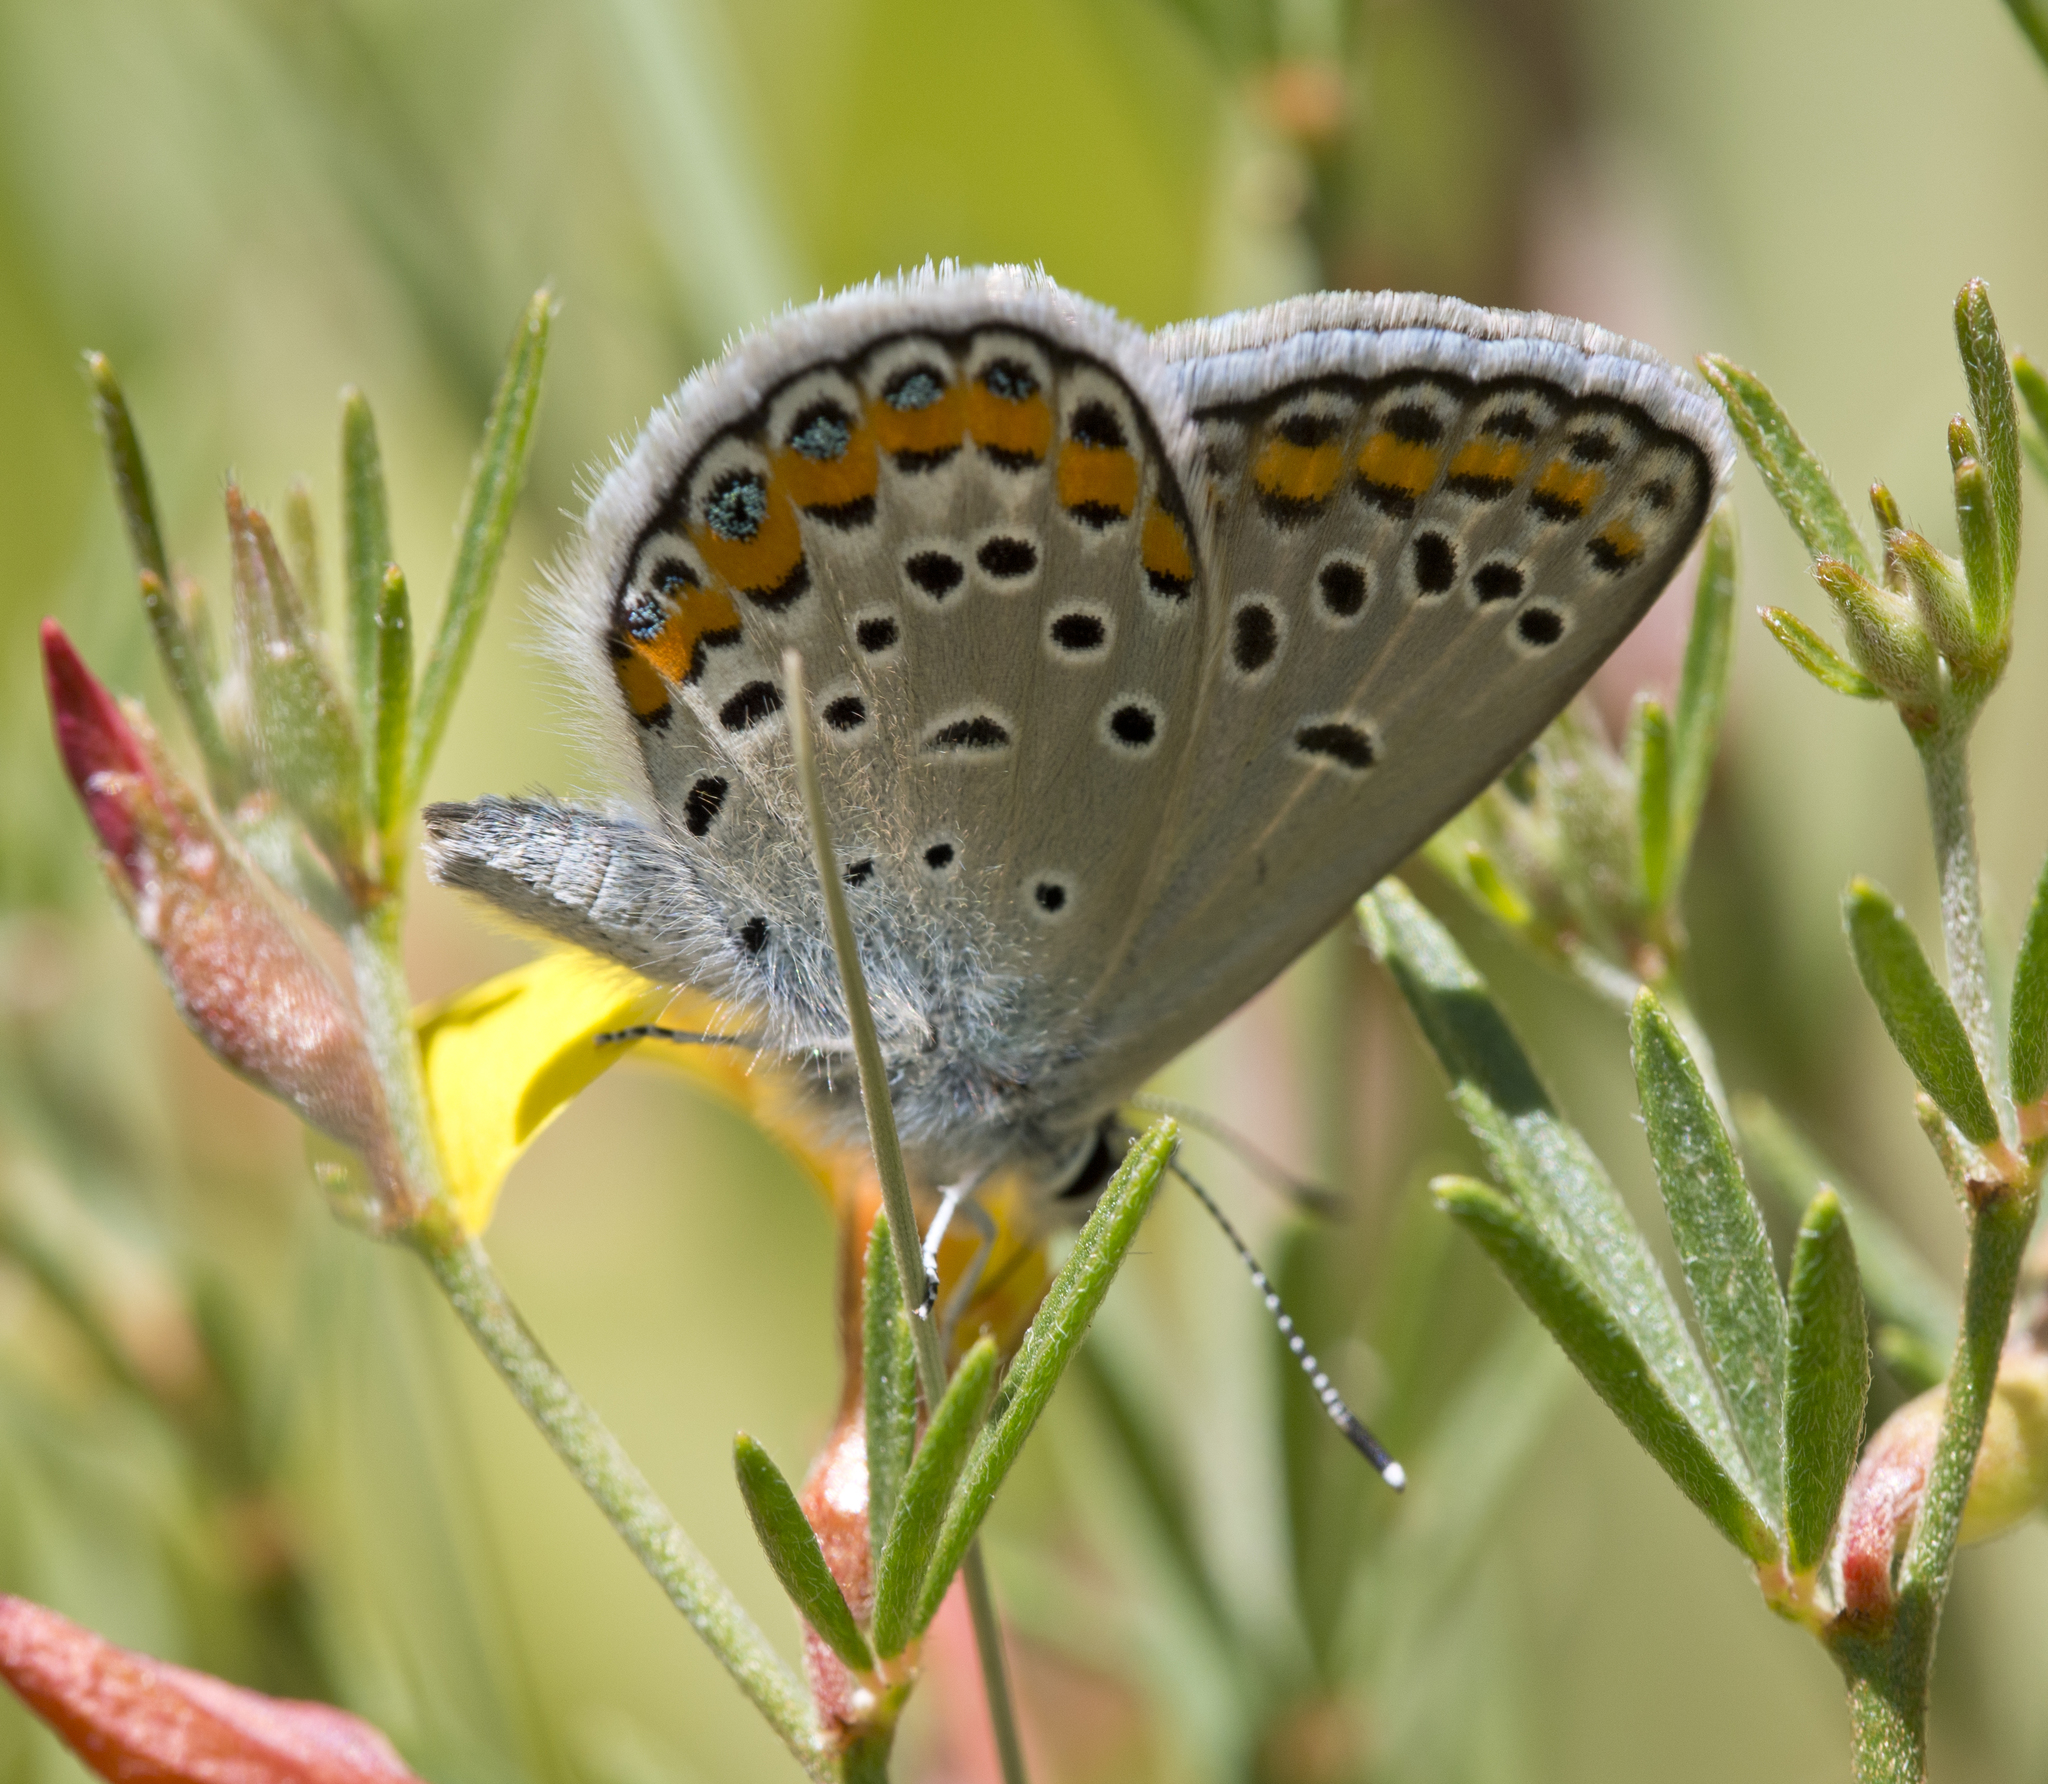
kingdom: Animalia
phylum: Arthropoda
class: Insecta
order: Lepidoptera
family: Lycaenidae
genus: Lycaeides
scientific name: Lycaeides melissa
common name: Melissa blue
